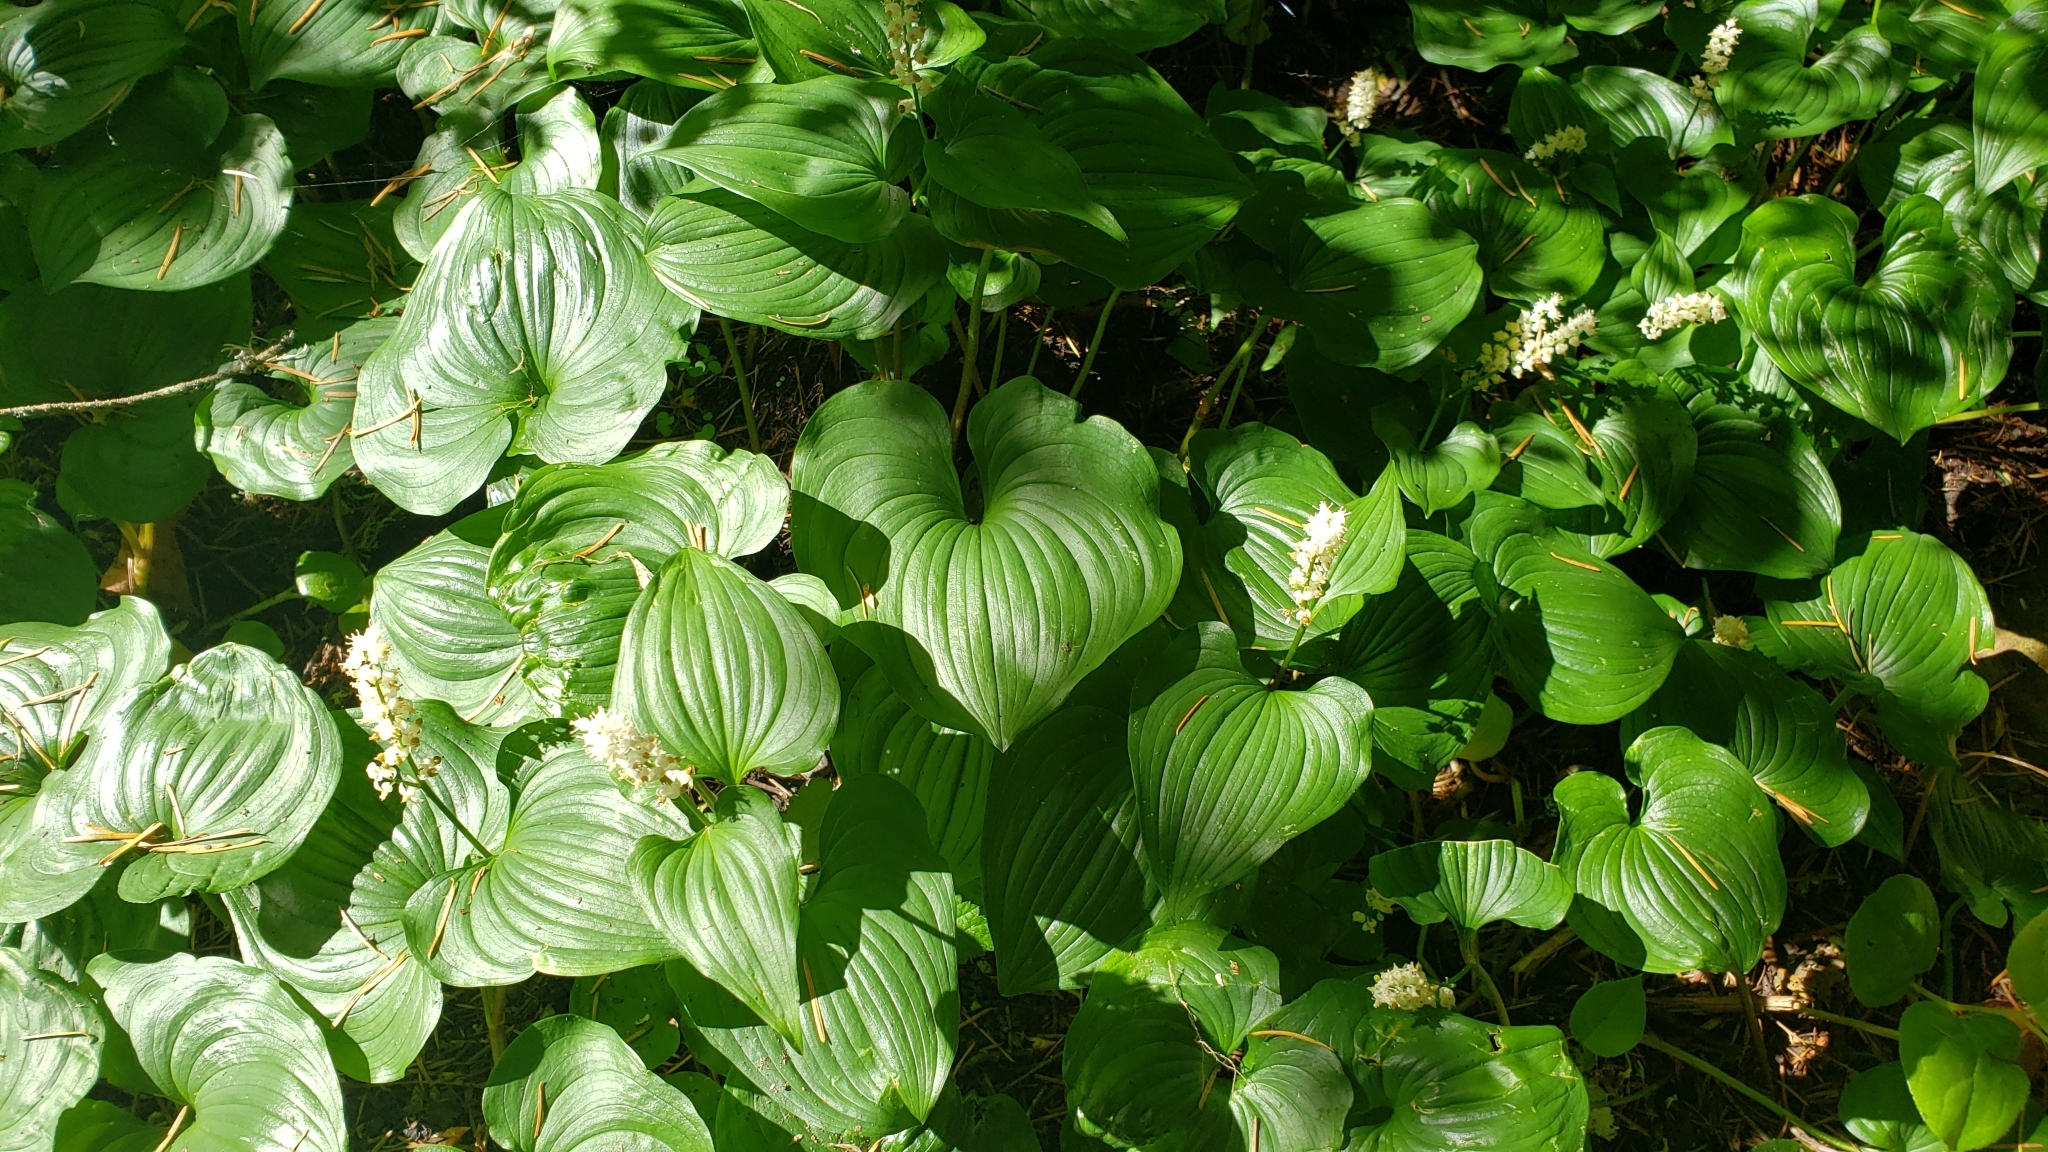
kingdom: Plantae
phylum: Tracheophyta
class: Liliopsida
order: Asparagales
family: Asparagaceae
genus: Maianthemum
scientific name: Maianthemum dilatatum
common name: False lily-of-the-valley
